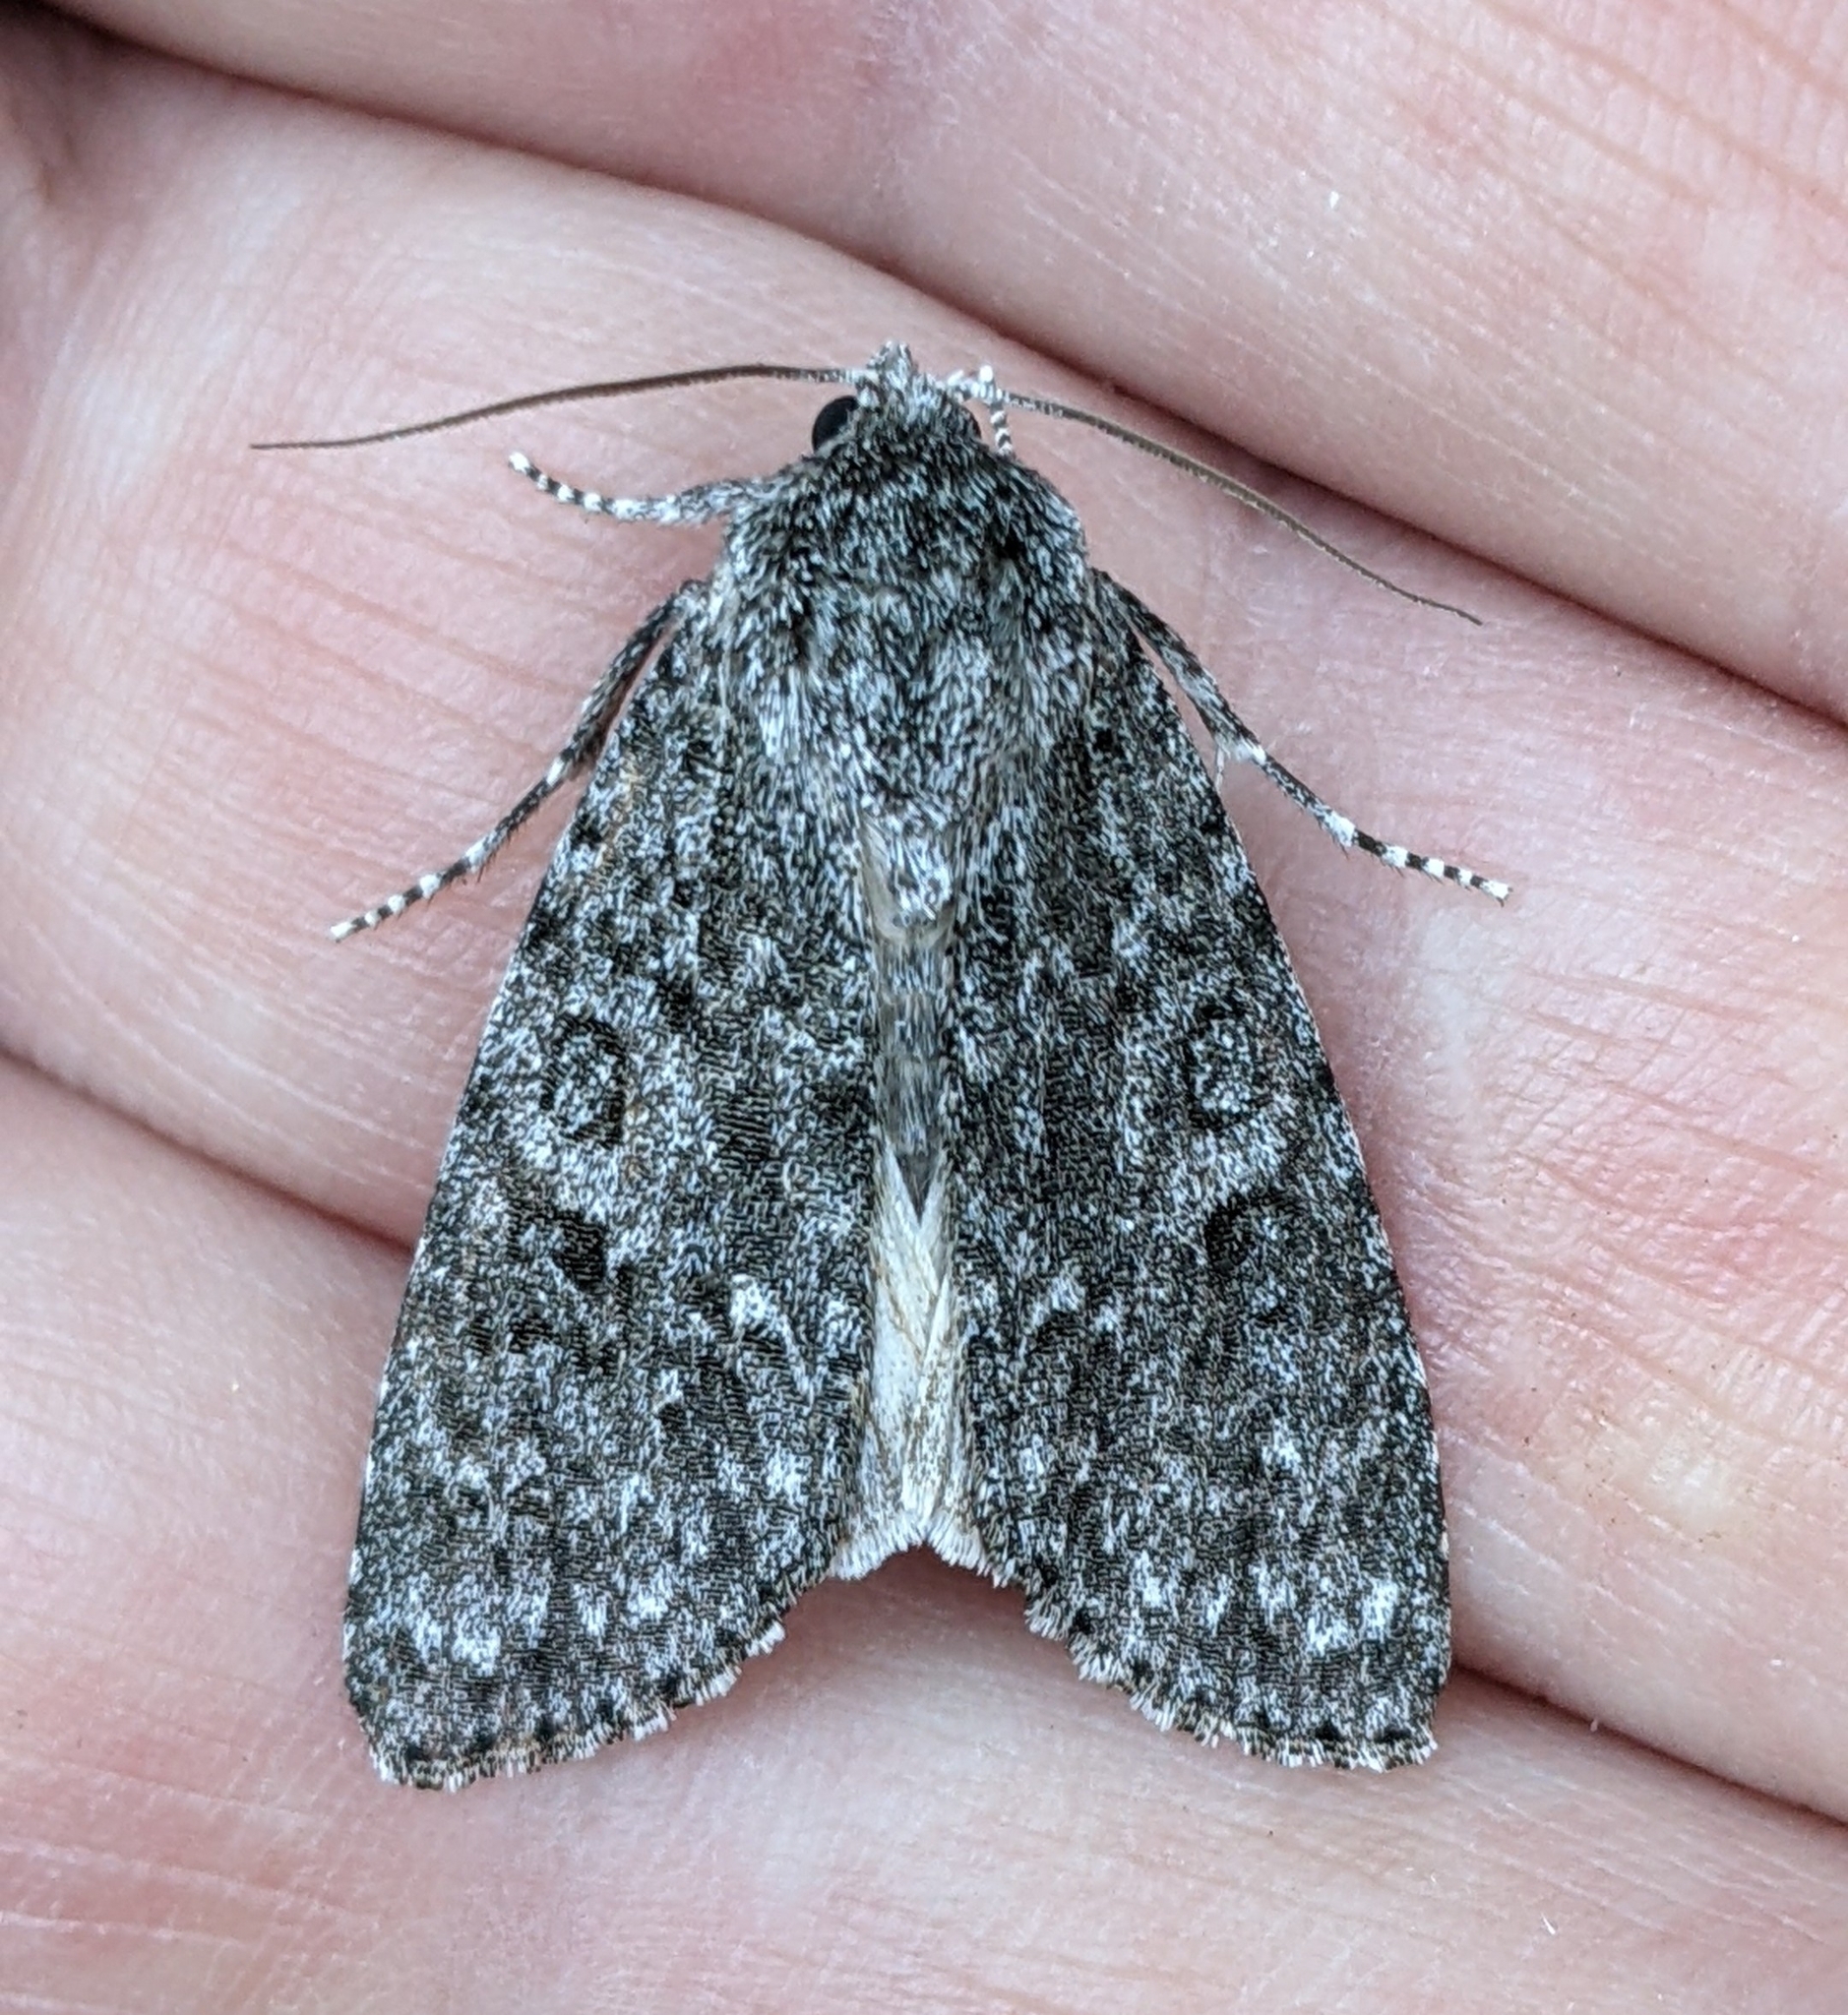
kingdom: Animalia
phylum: Arthropoda
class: Insecta
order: Lepidoptera
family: Noctuidae
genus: Acronicta
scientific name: Acronicta impleta
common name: Powdered dagger
